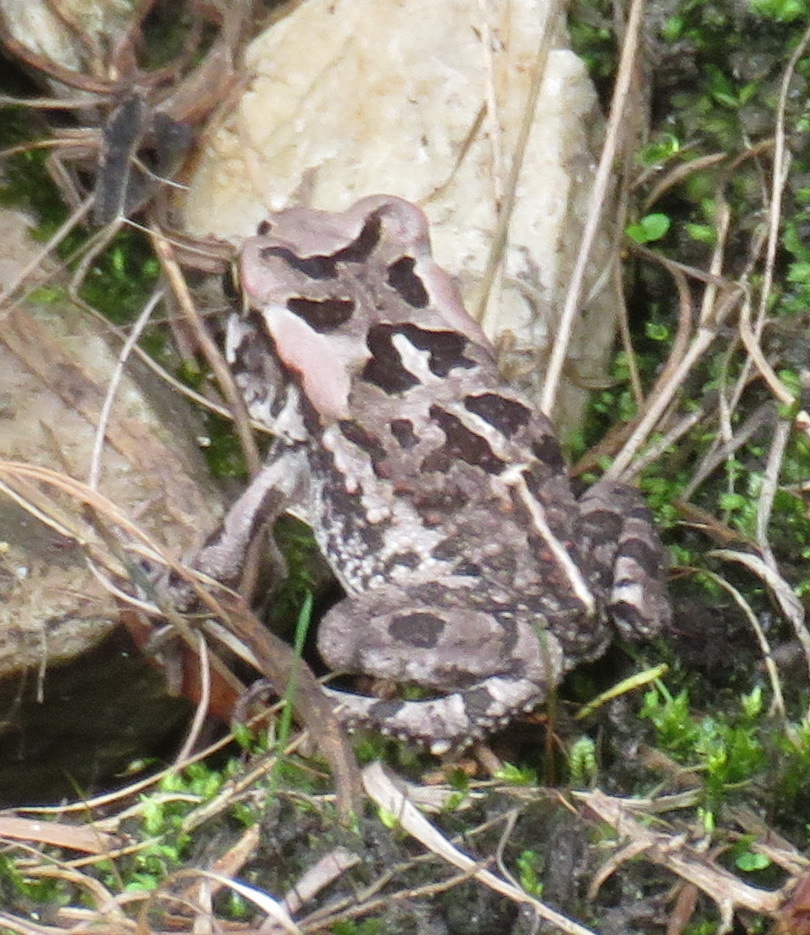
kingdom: Animalia
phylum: Chordata
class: Amphibia
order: Anura
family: Bufonidae
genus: Sclerophrys
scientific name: Sclerophrys capensis
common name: Ranger’s toad
